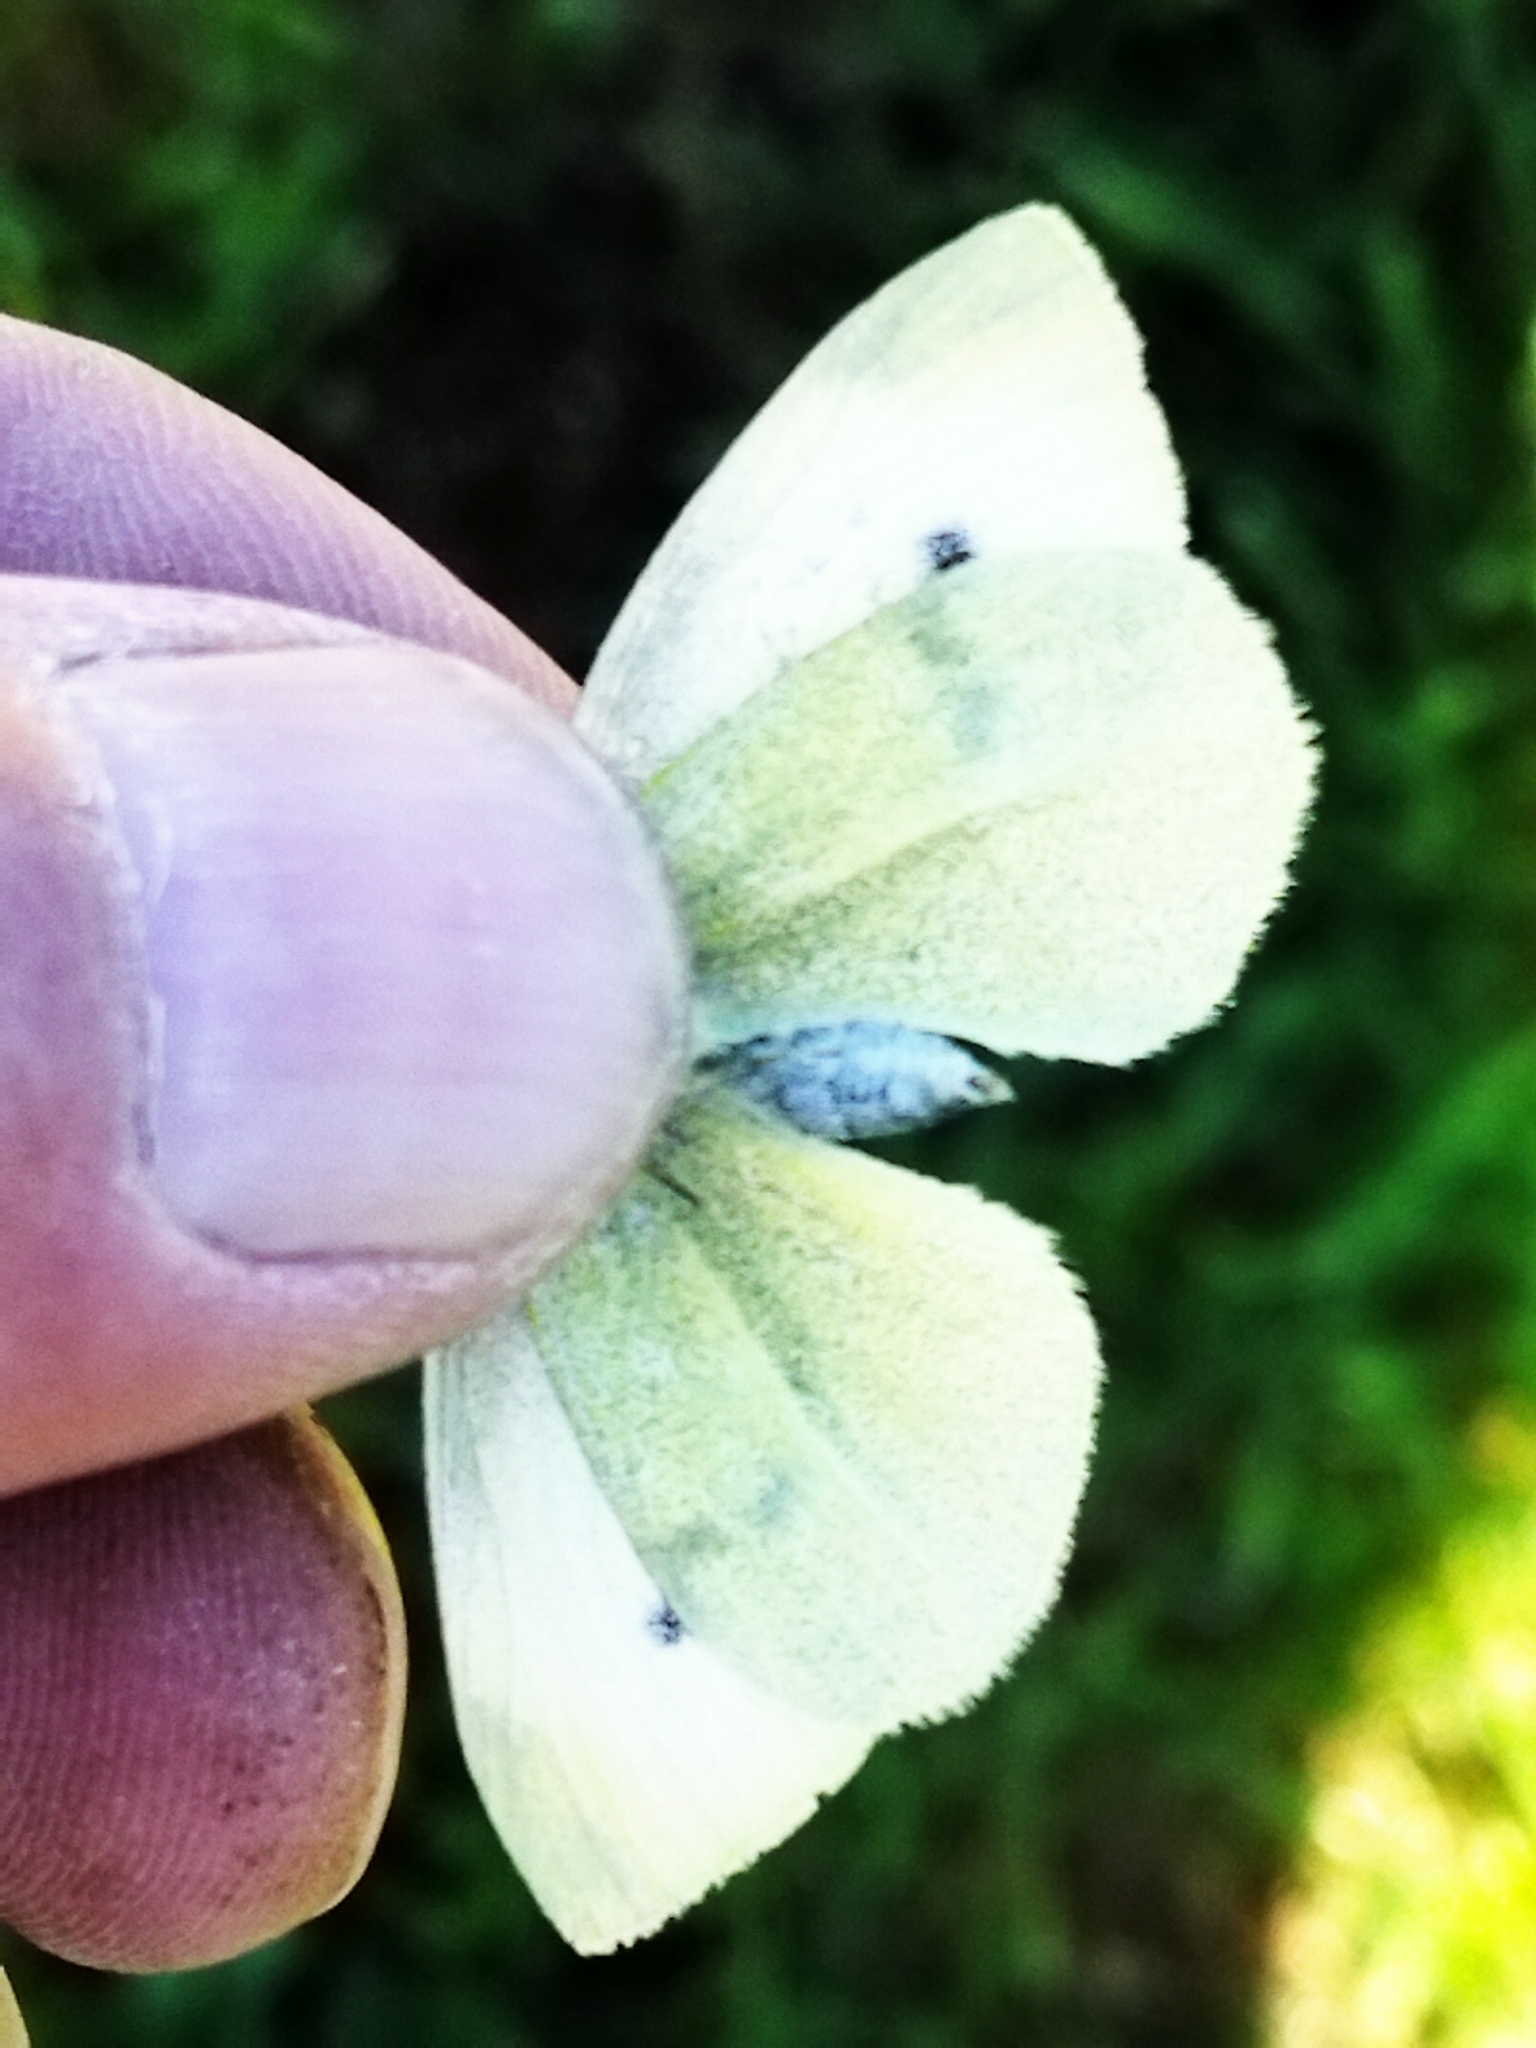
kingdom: Animalia
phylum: Arthropoda
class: Insecta
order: Lepidoptera
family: Pieridae
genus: Pieris
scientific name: Pieris rapae
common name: Small white
